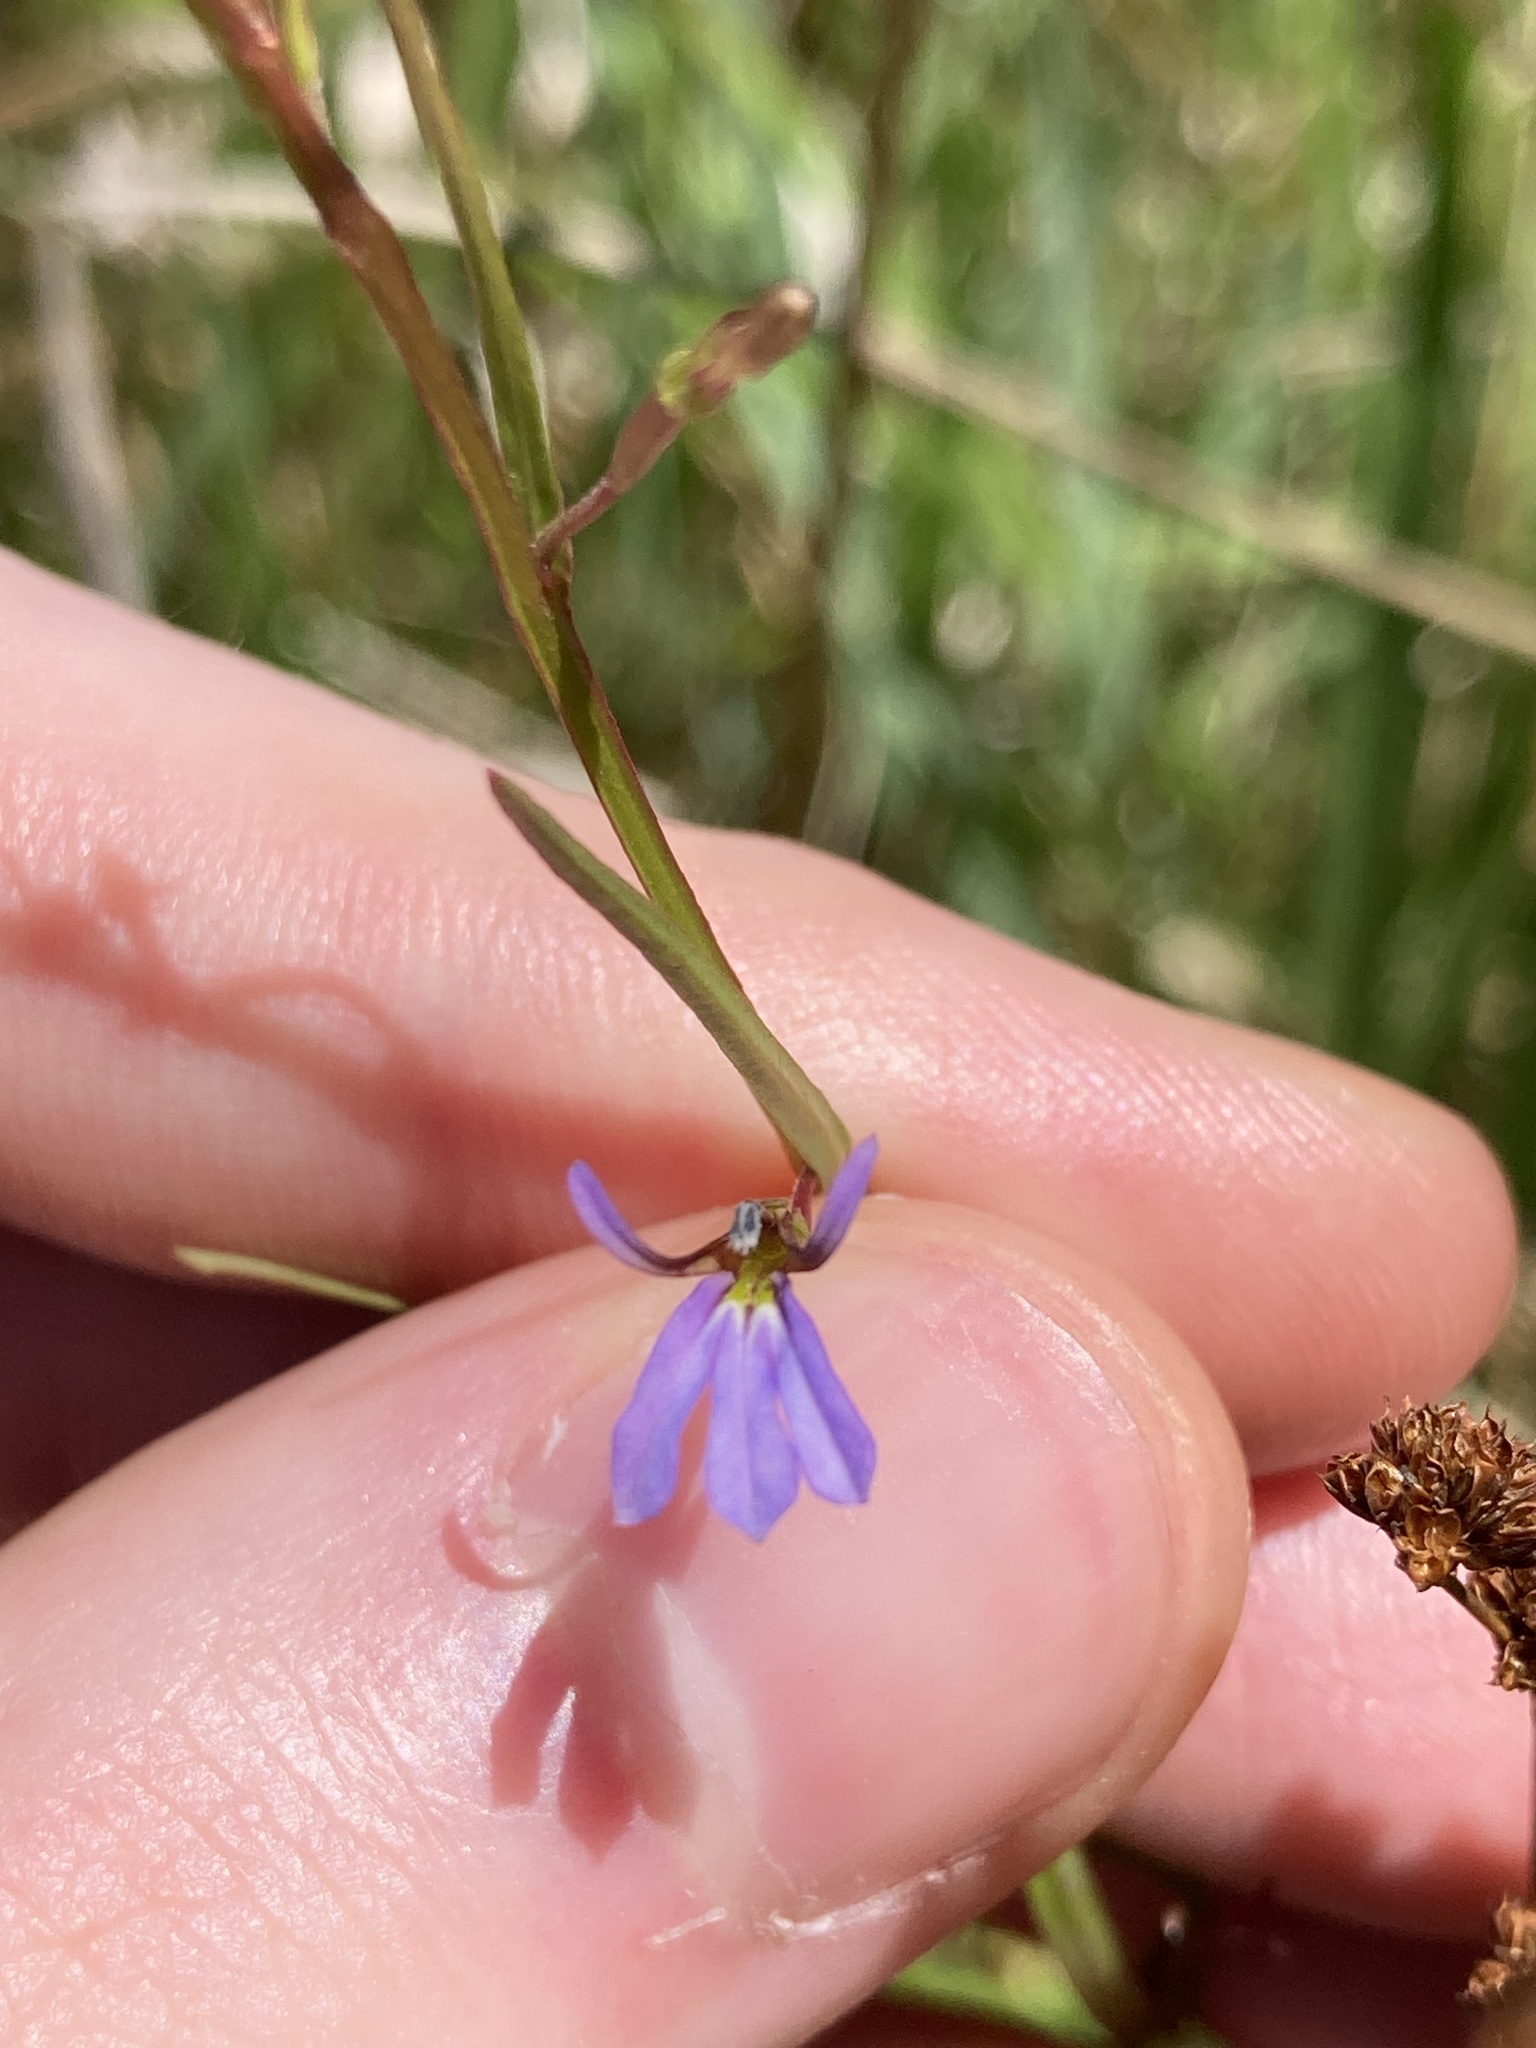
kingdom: Plantae
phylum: Tracheophyta
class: Magnoliopsida
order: Asterales
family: Campanulaceae
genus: Lobelia
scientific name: Lobelia anceps
